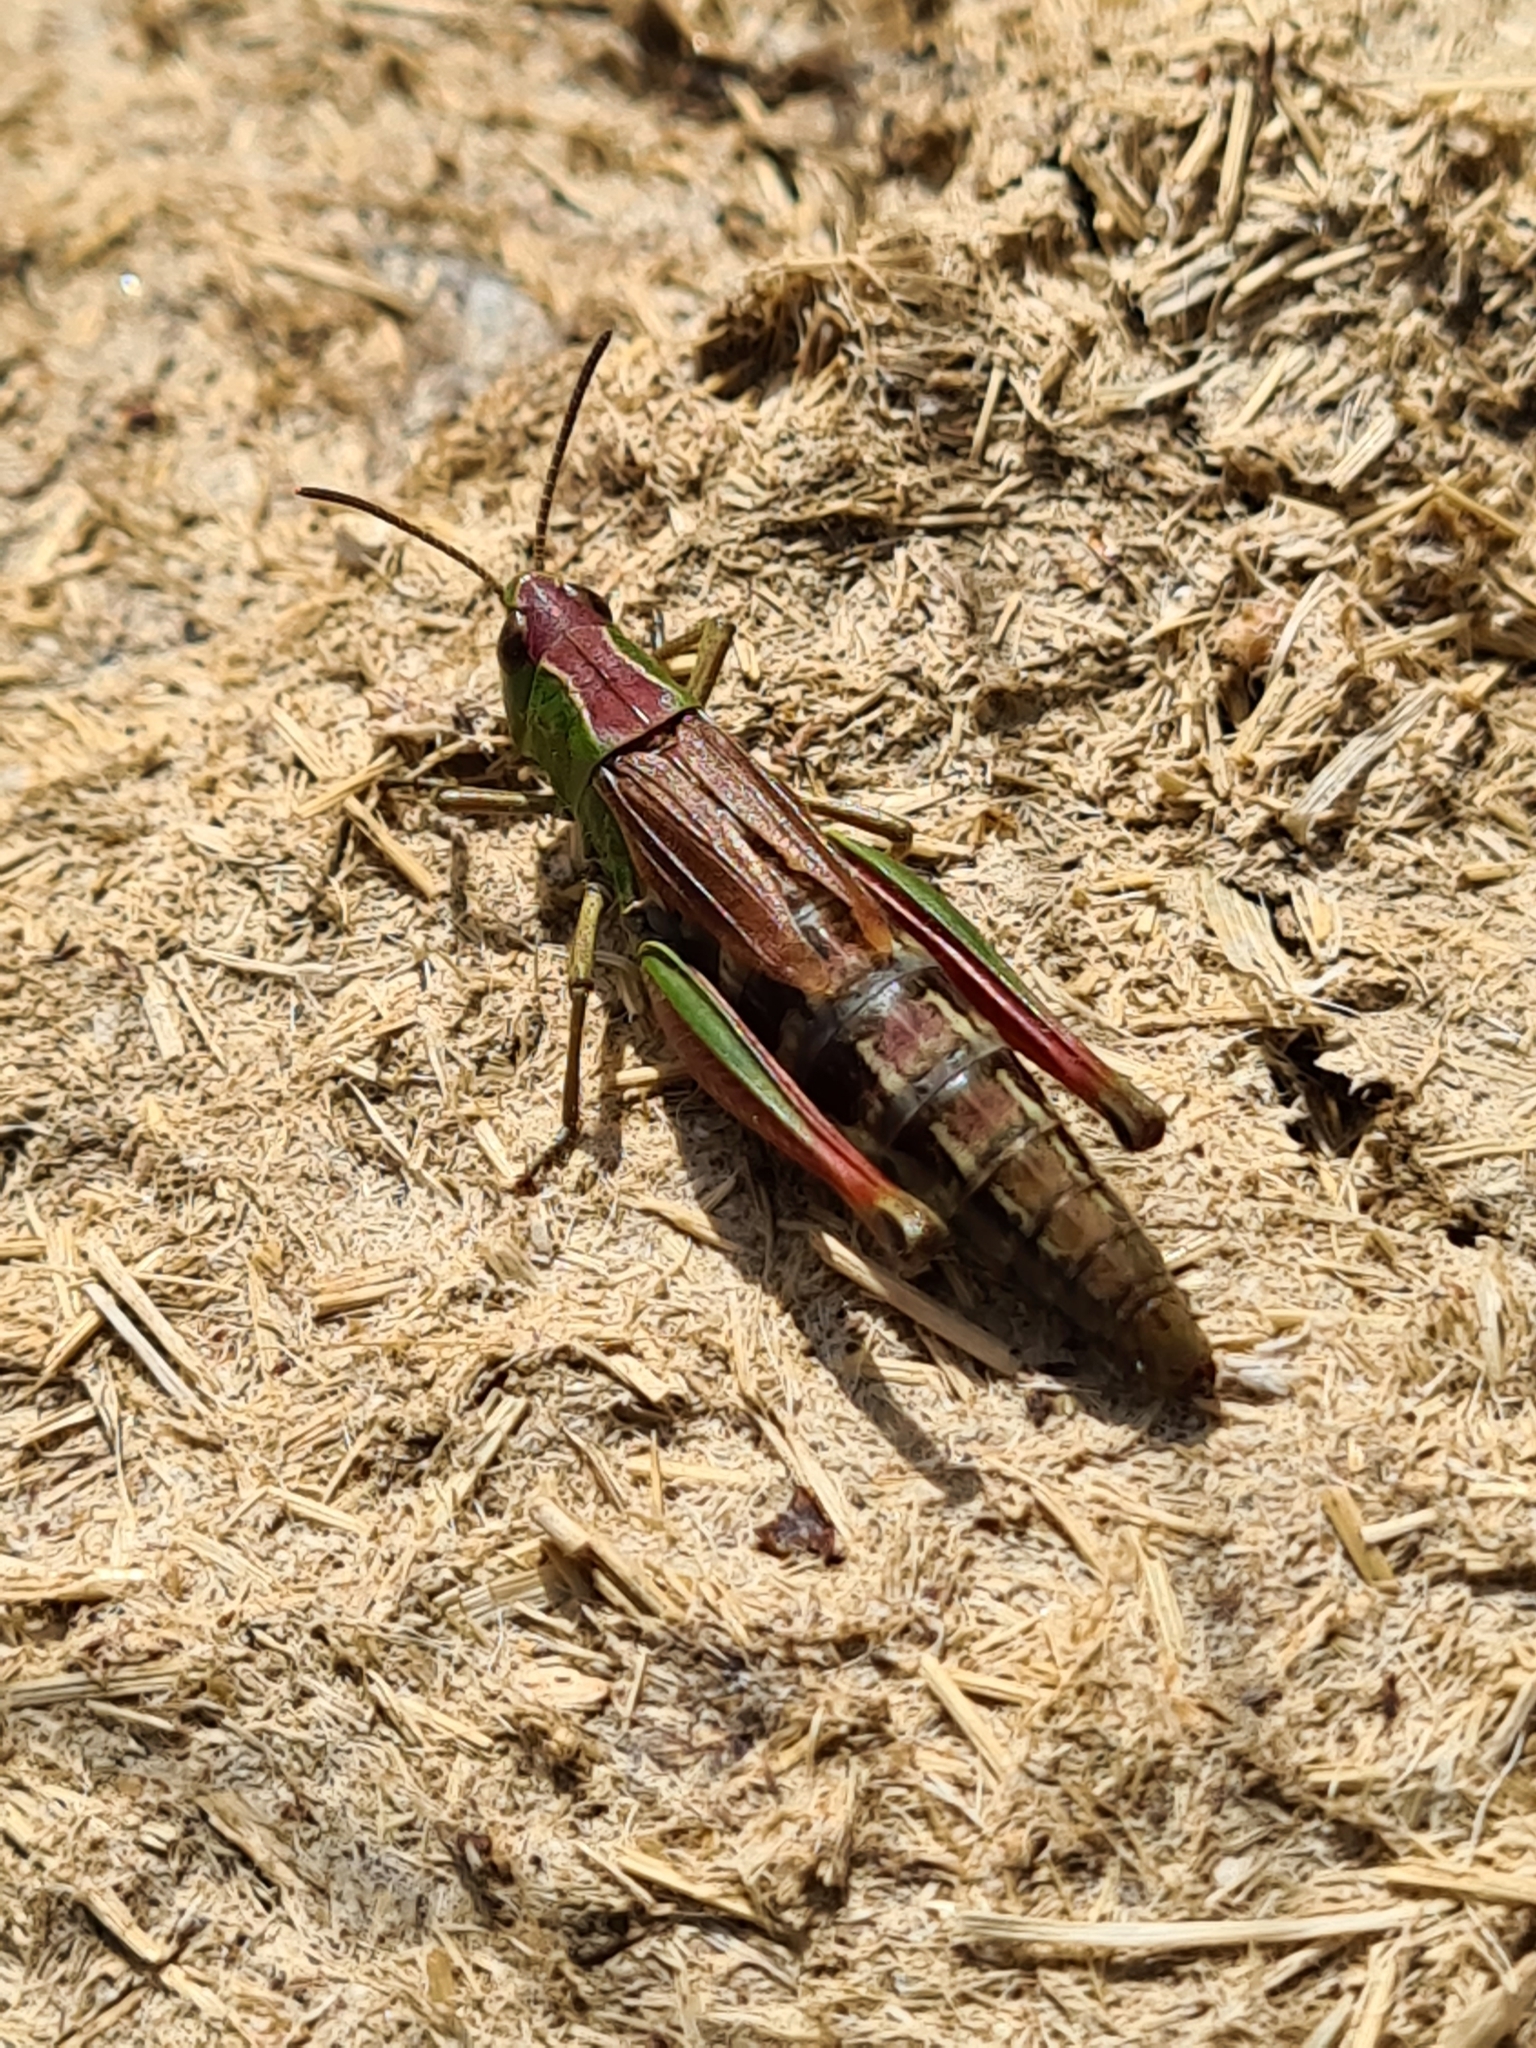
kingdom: Animalia
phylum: Arthropoda
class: Insecta
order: Orthoptera
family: Acrididae
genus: Pseudochorthippus
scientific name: Pseudochorthippus parallelus
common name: Meadow grasshopper
